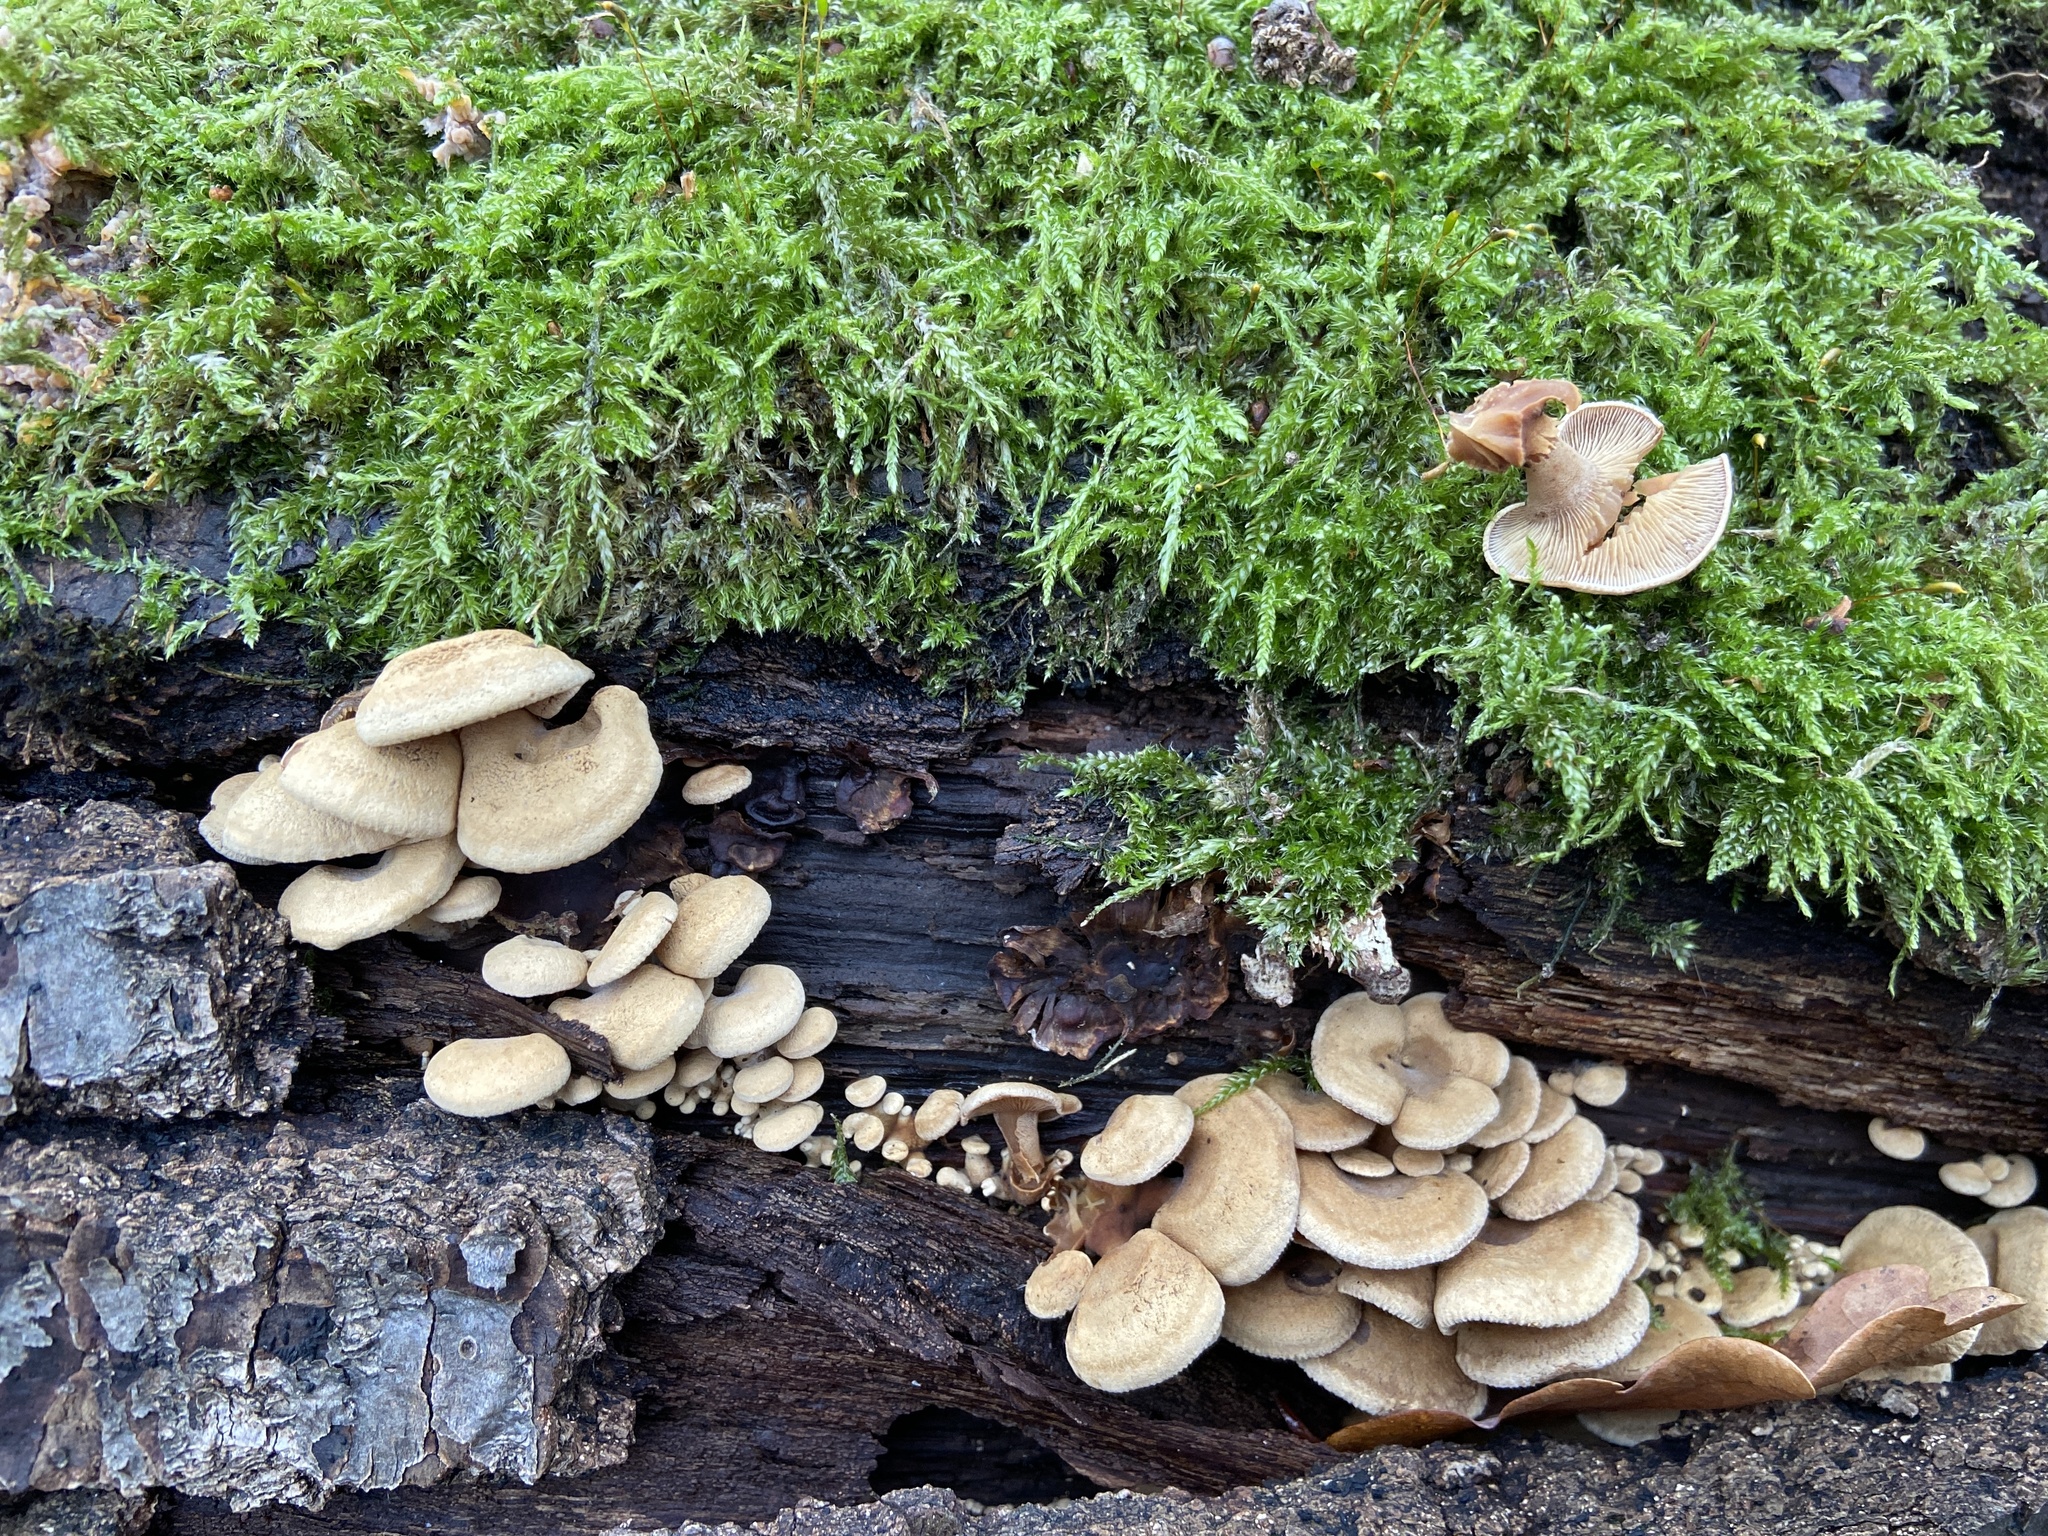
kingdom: Fungi
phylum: Basidiomycota
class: Agaricomycetes
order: Agaricales
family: Mycenaceae
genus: Panellus
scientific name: Panellus stipticus
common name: Bitter oysterling
